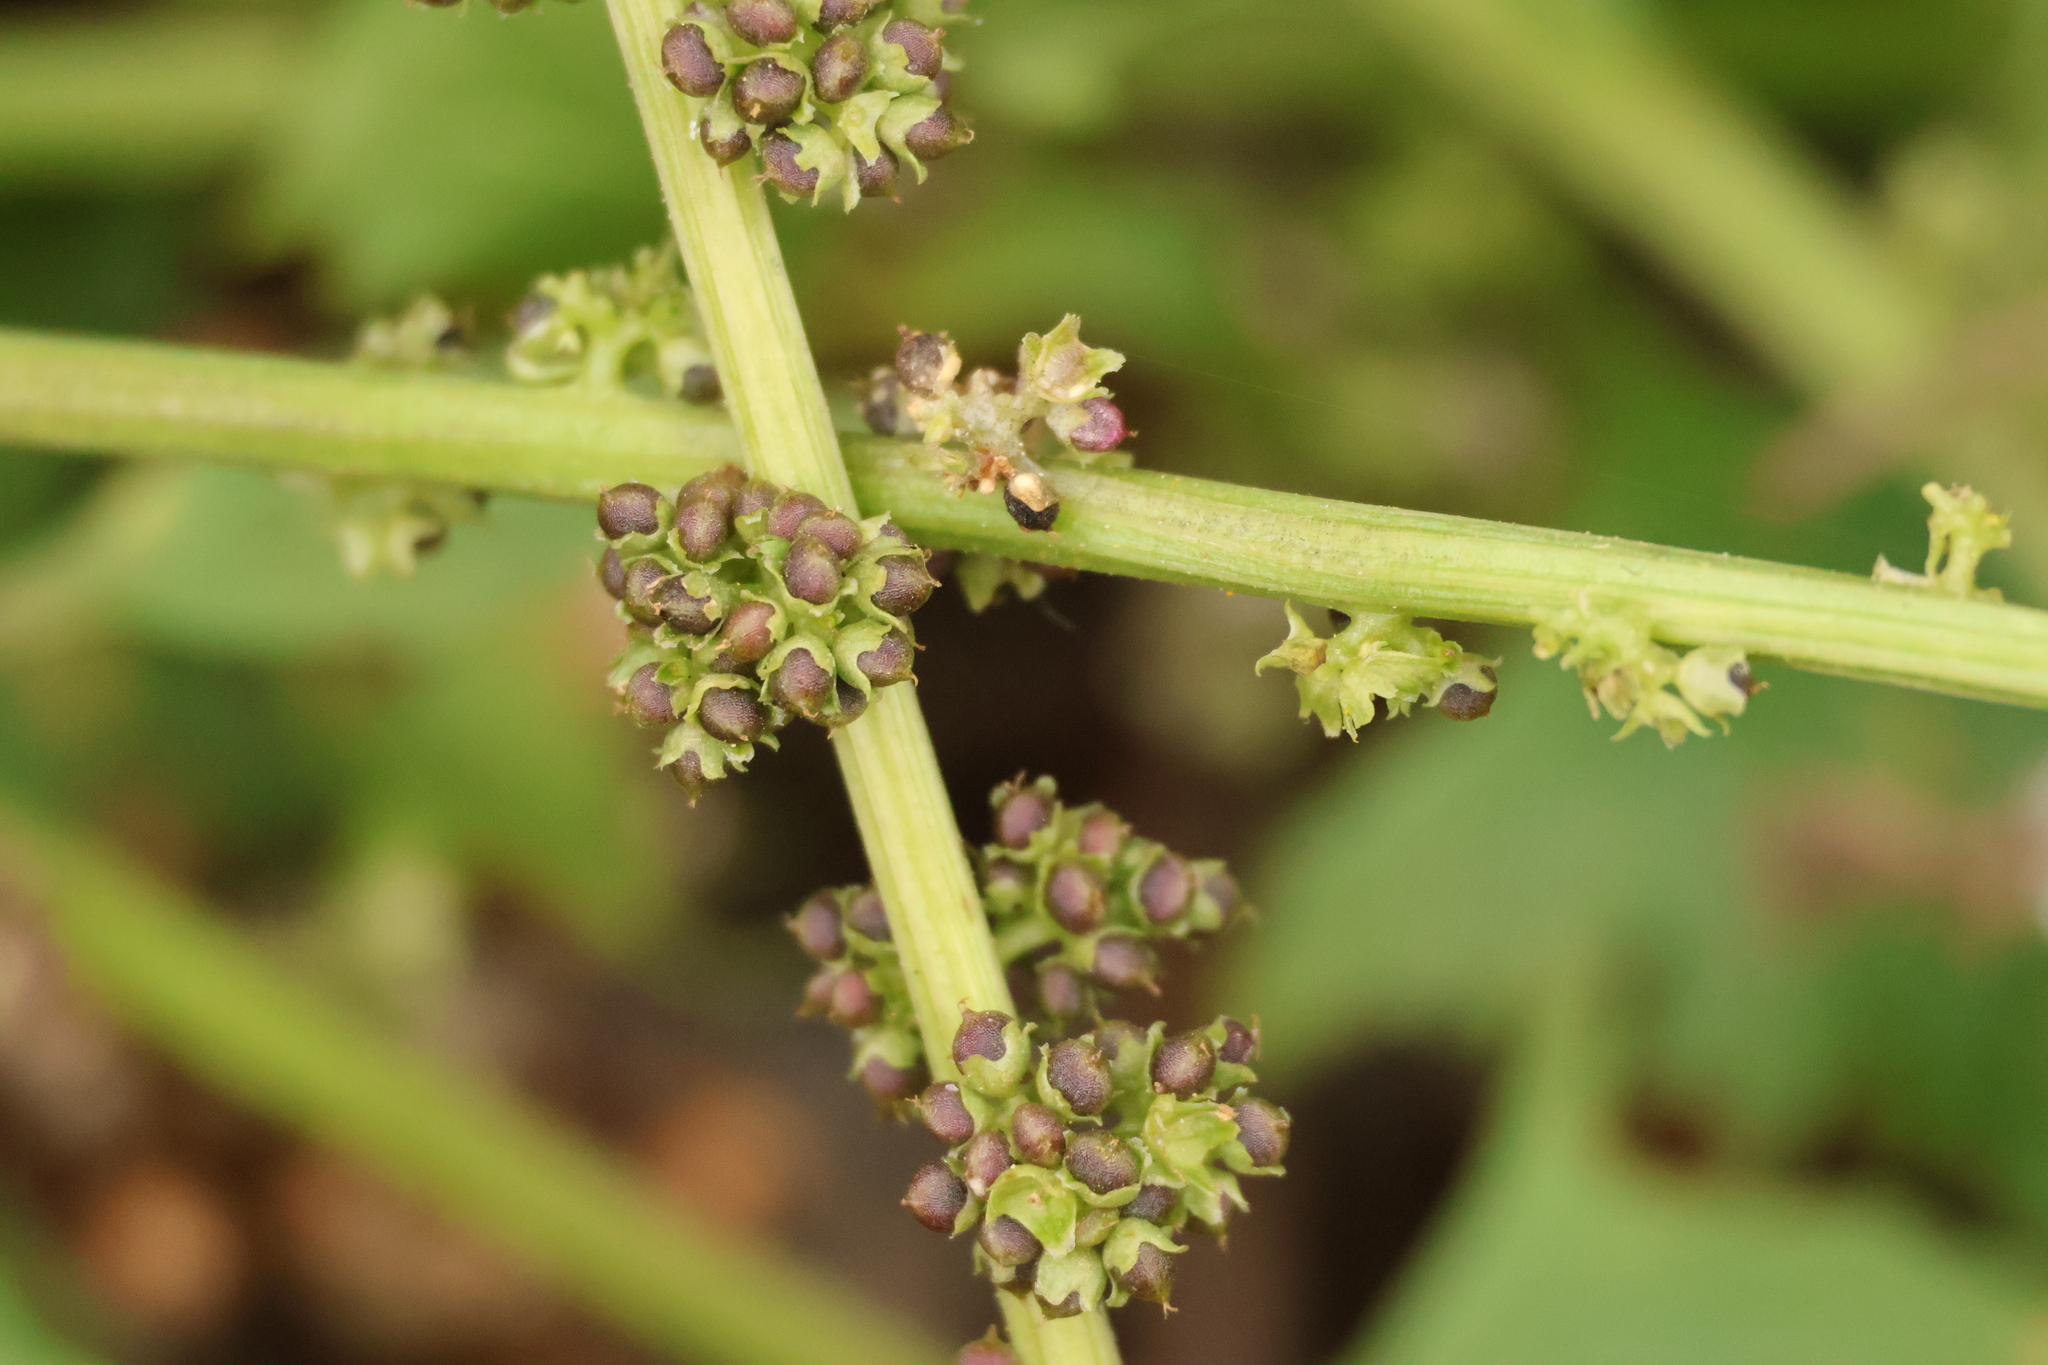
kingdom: Plantae
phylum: Tracheophyta
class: Magnoliopsida
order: Caryophyllales
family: Amaranthaceae
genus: Blitum
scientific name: Blitum californicum
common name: California goosefoot
